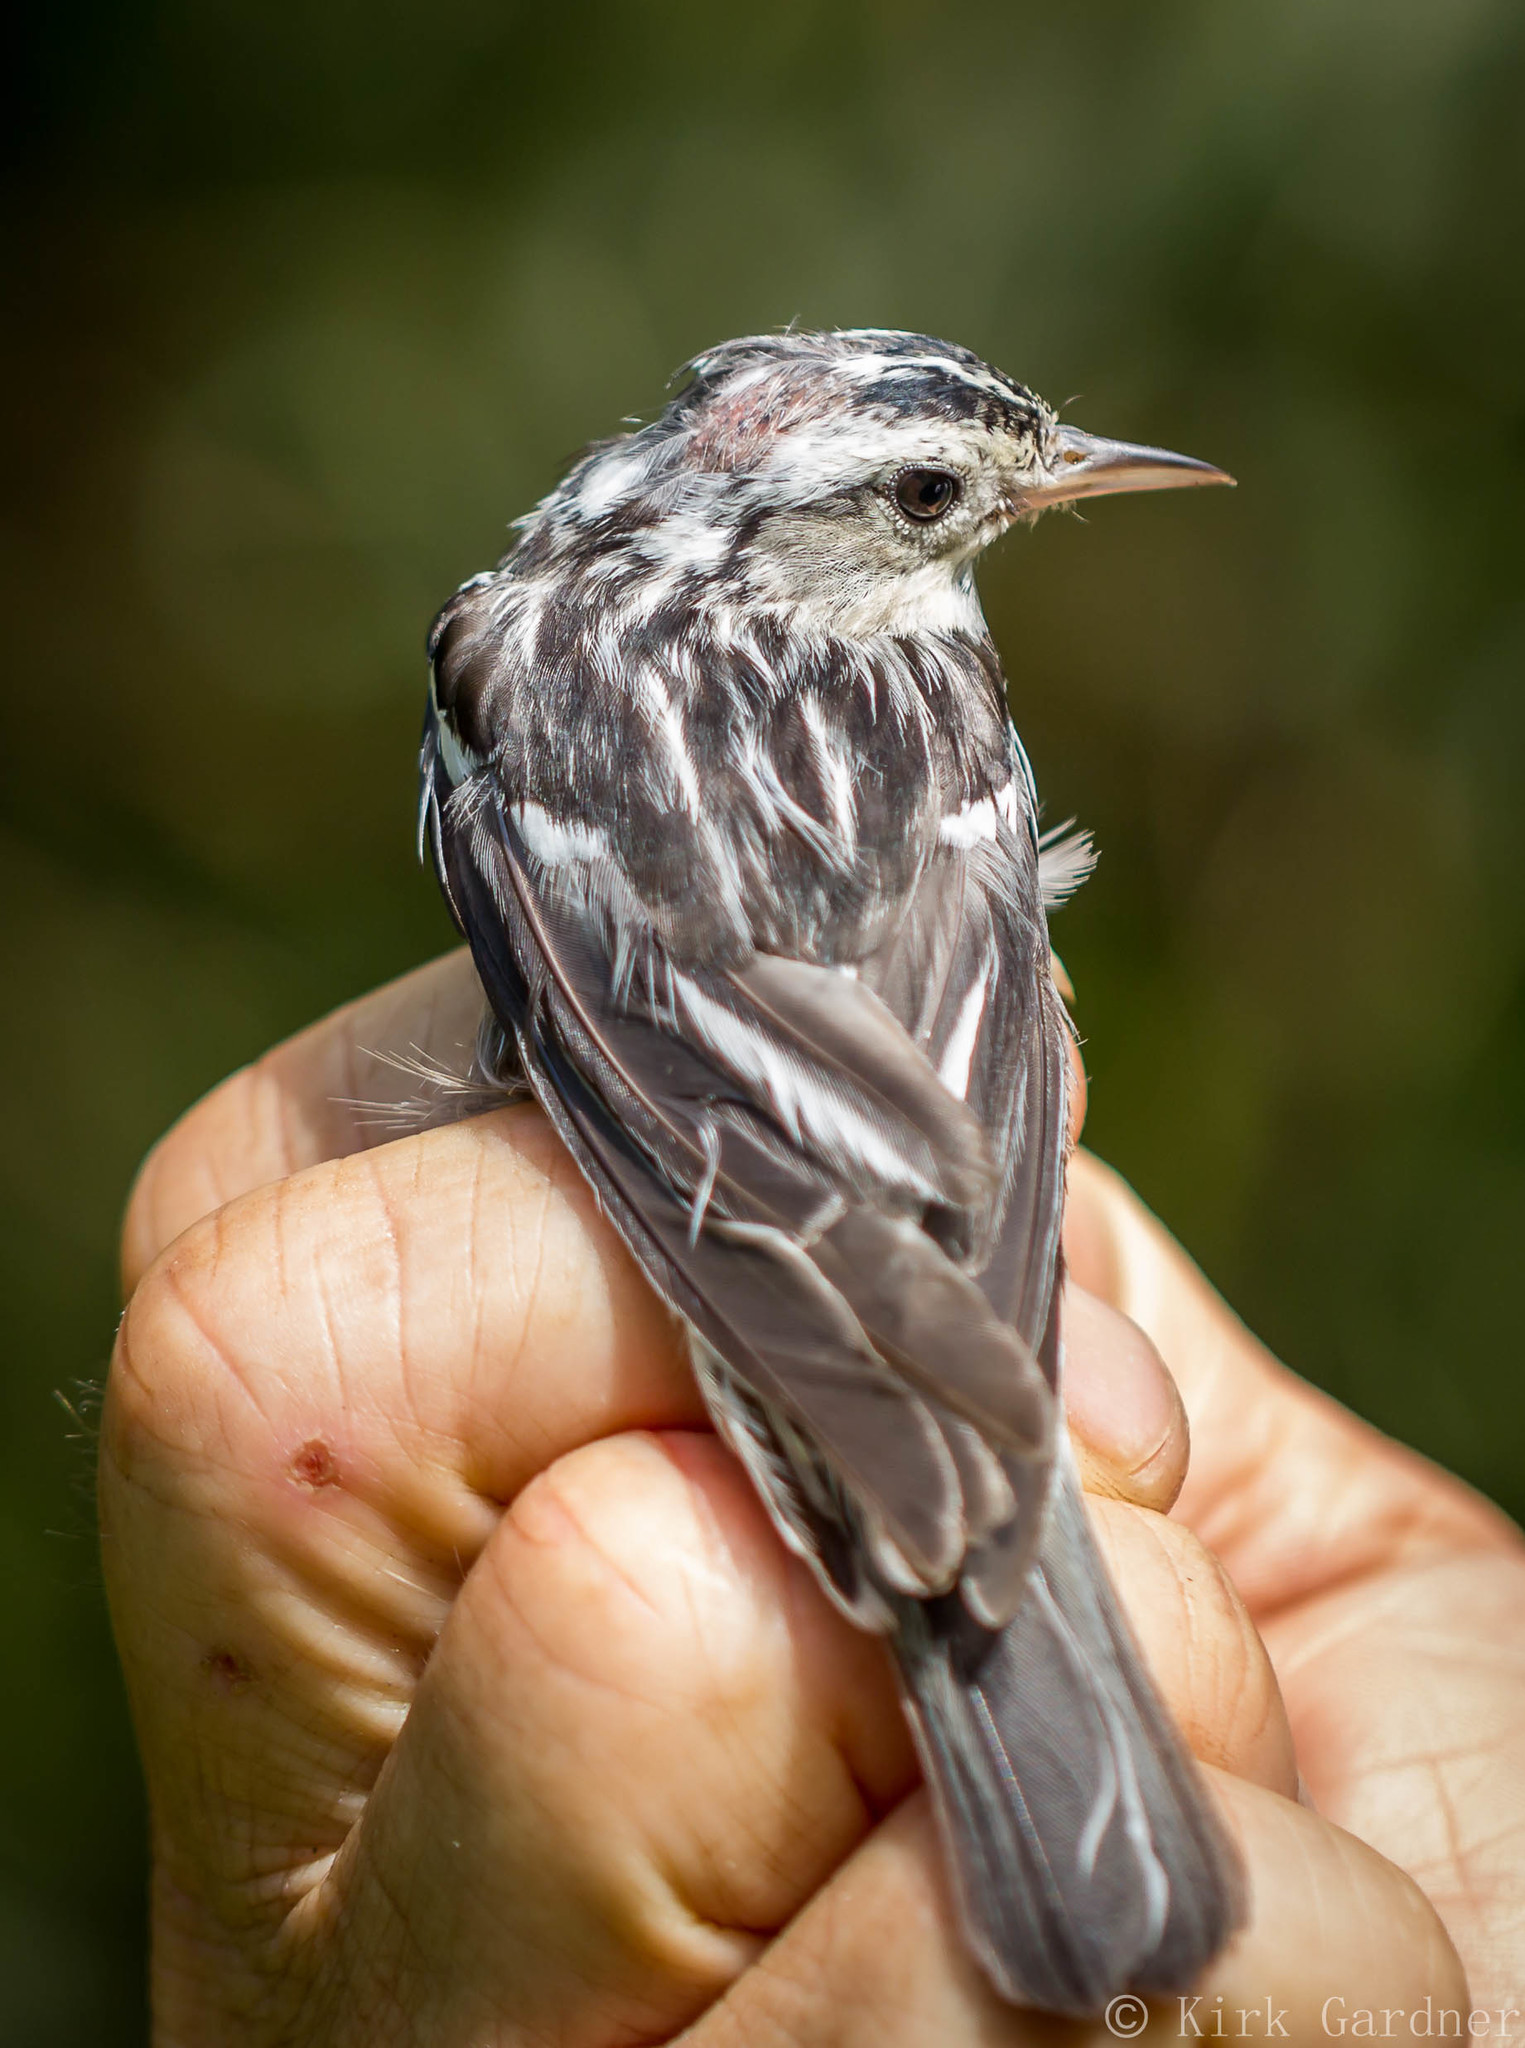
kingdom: Animalia
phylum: Chordata
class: Aves
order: Passeriformes
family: Parulidae
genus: Mniotilta
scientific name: Mniotilta varia
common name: Black-and-white warbler
